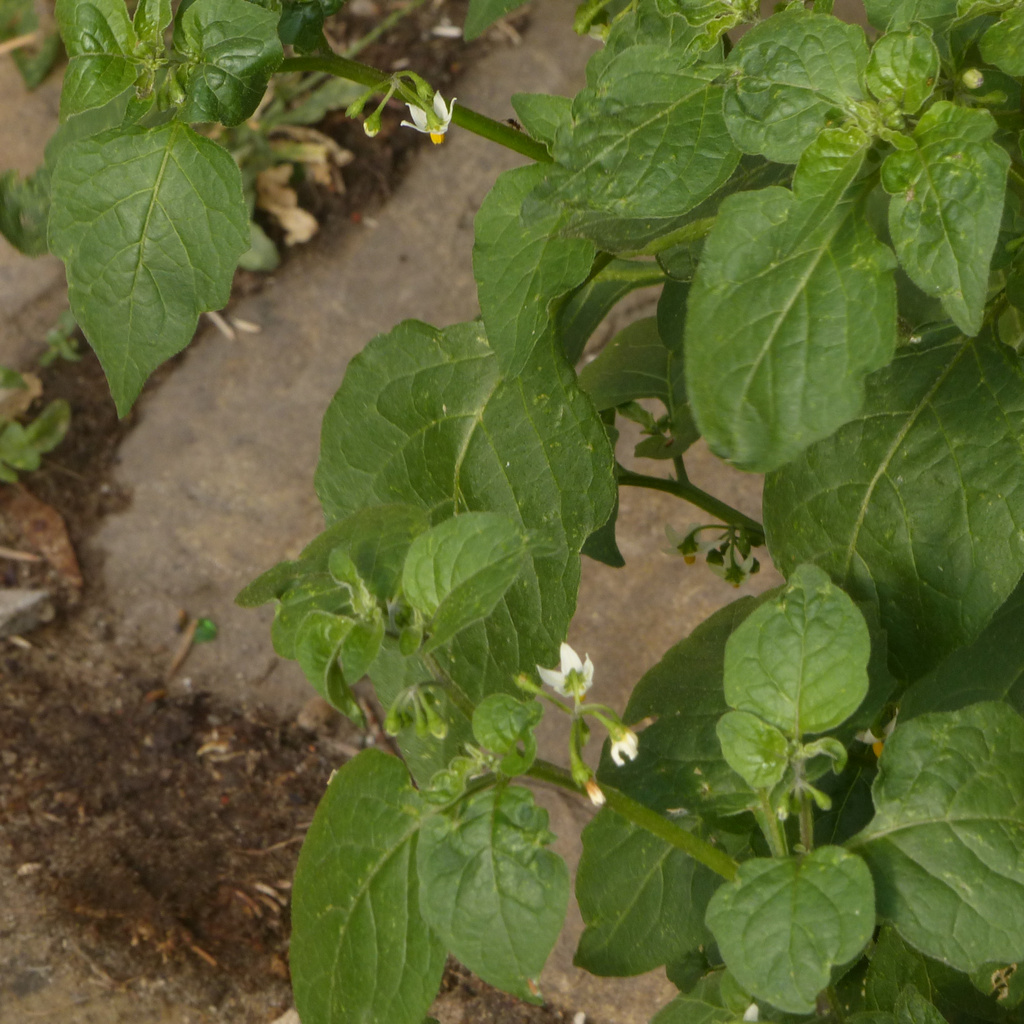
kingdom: Plantae
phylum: Tracheophyta
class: Magnoliopsida
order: Solanales
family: Solanaceae
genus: Solanum
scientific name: Solanum nigrum
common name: Black nightshade
